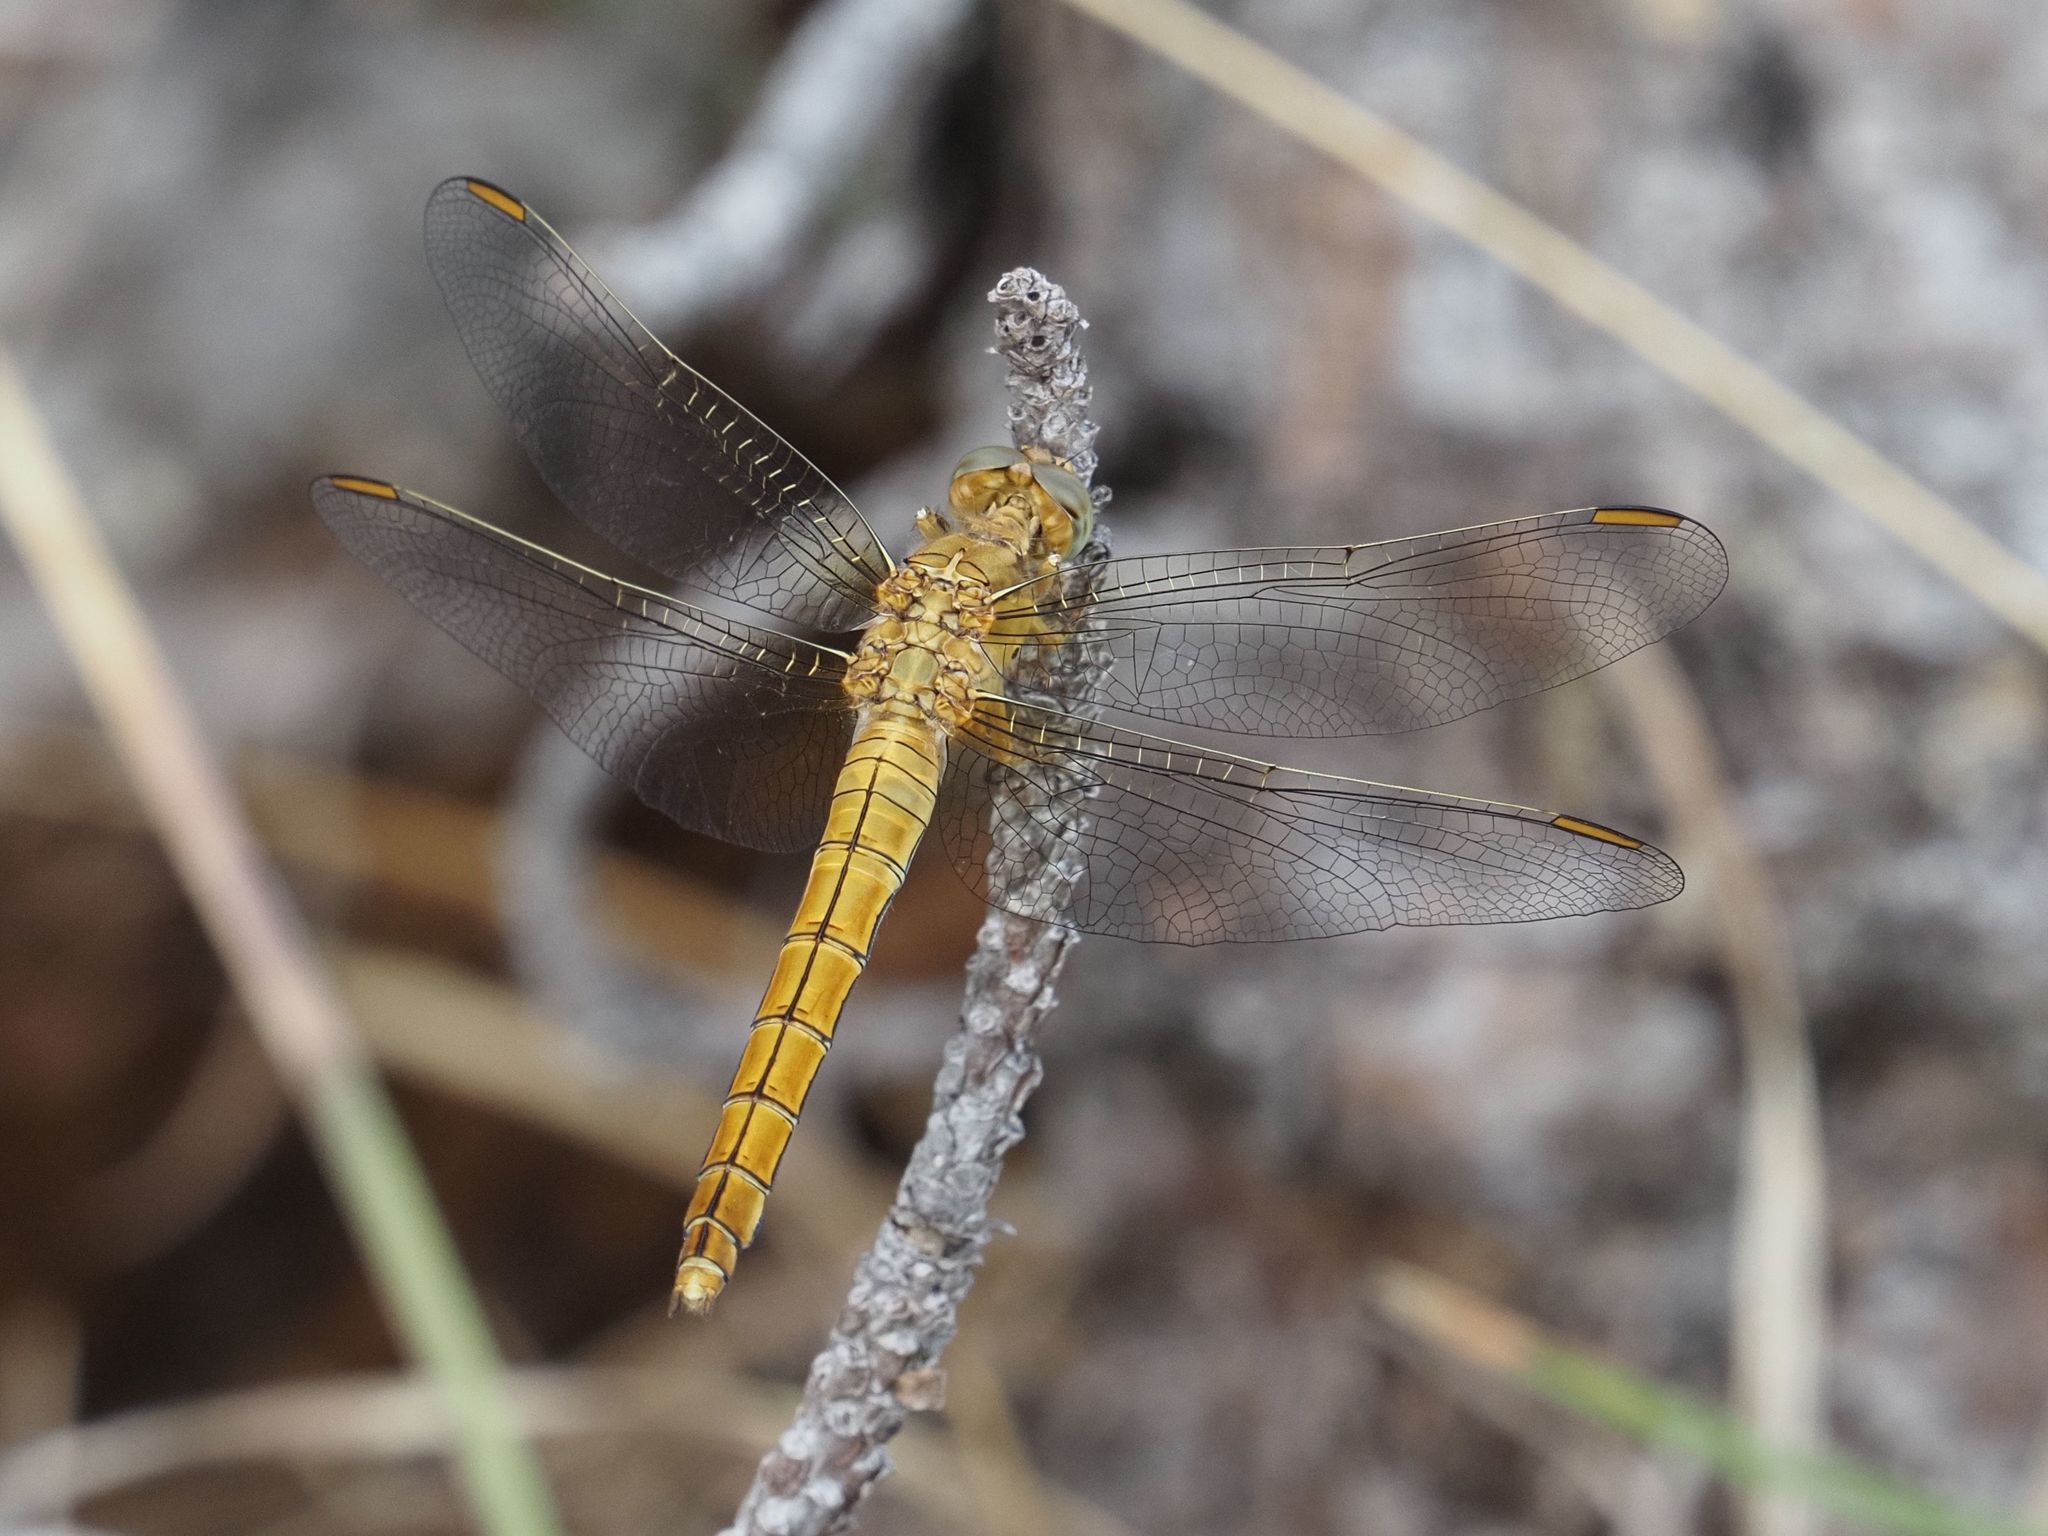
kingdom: Animalia
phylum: Arthropoda
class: Insecta
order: Odonata
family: Libellulidae
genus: Orthetrum
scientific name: Orthetrum coerulescens
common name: Keeled skimmer
